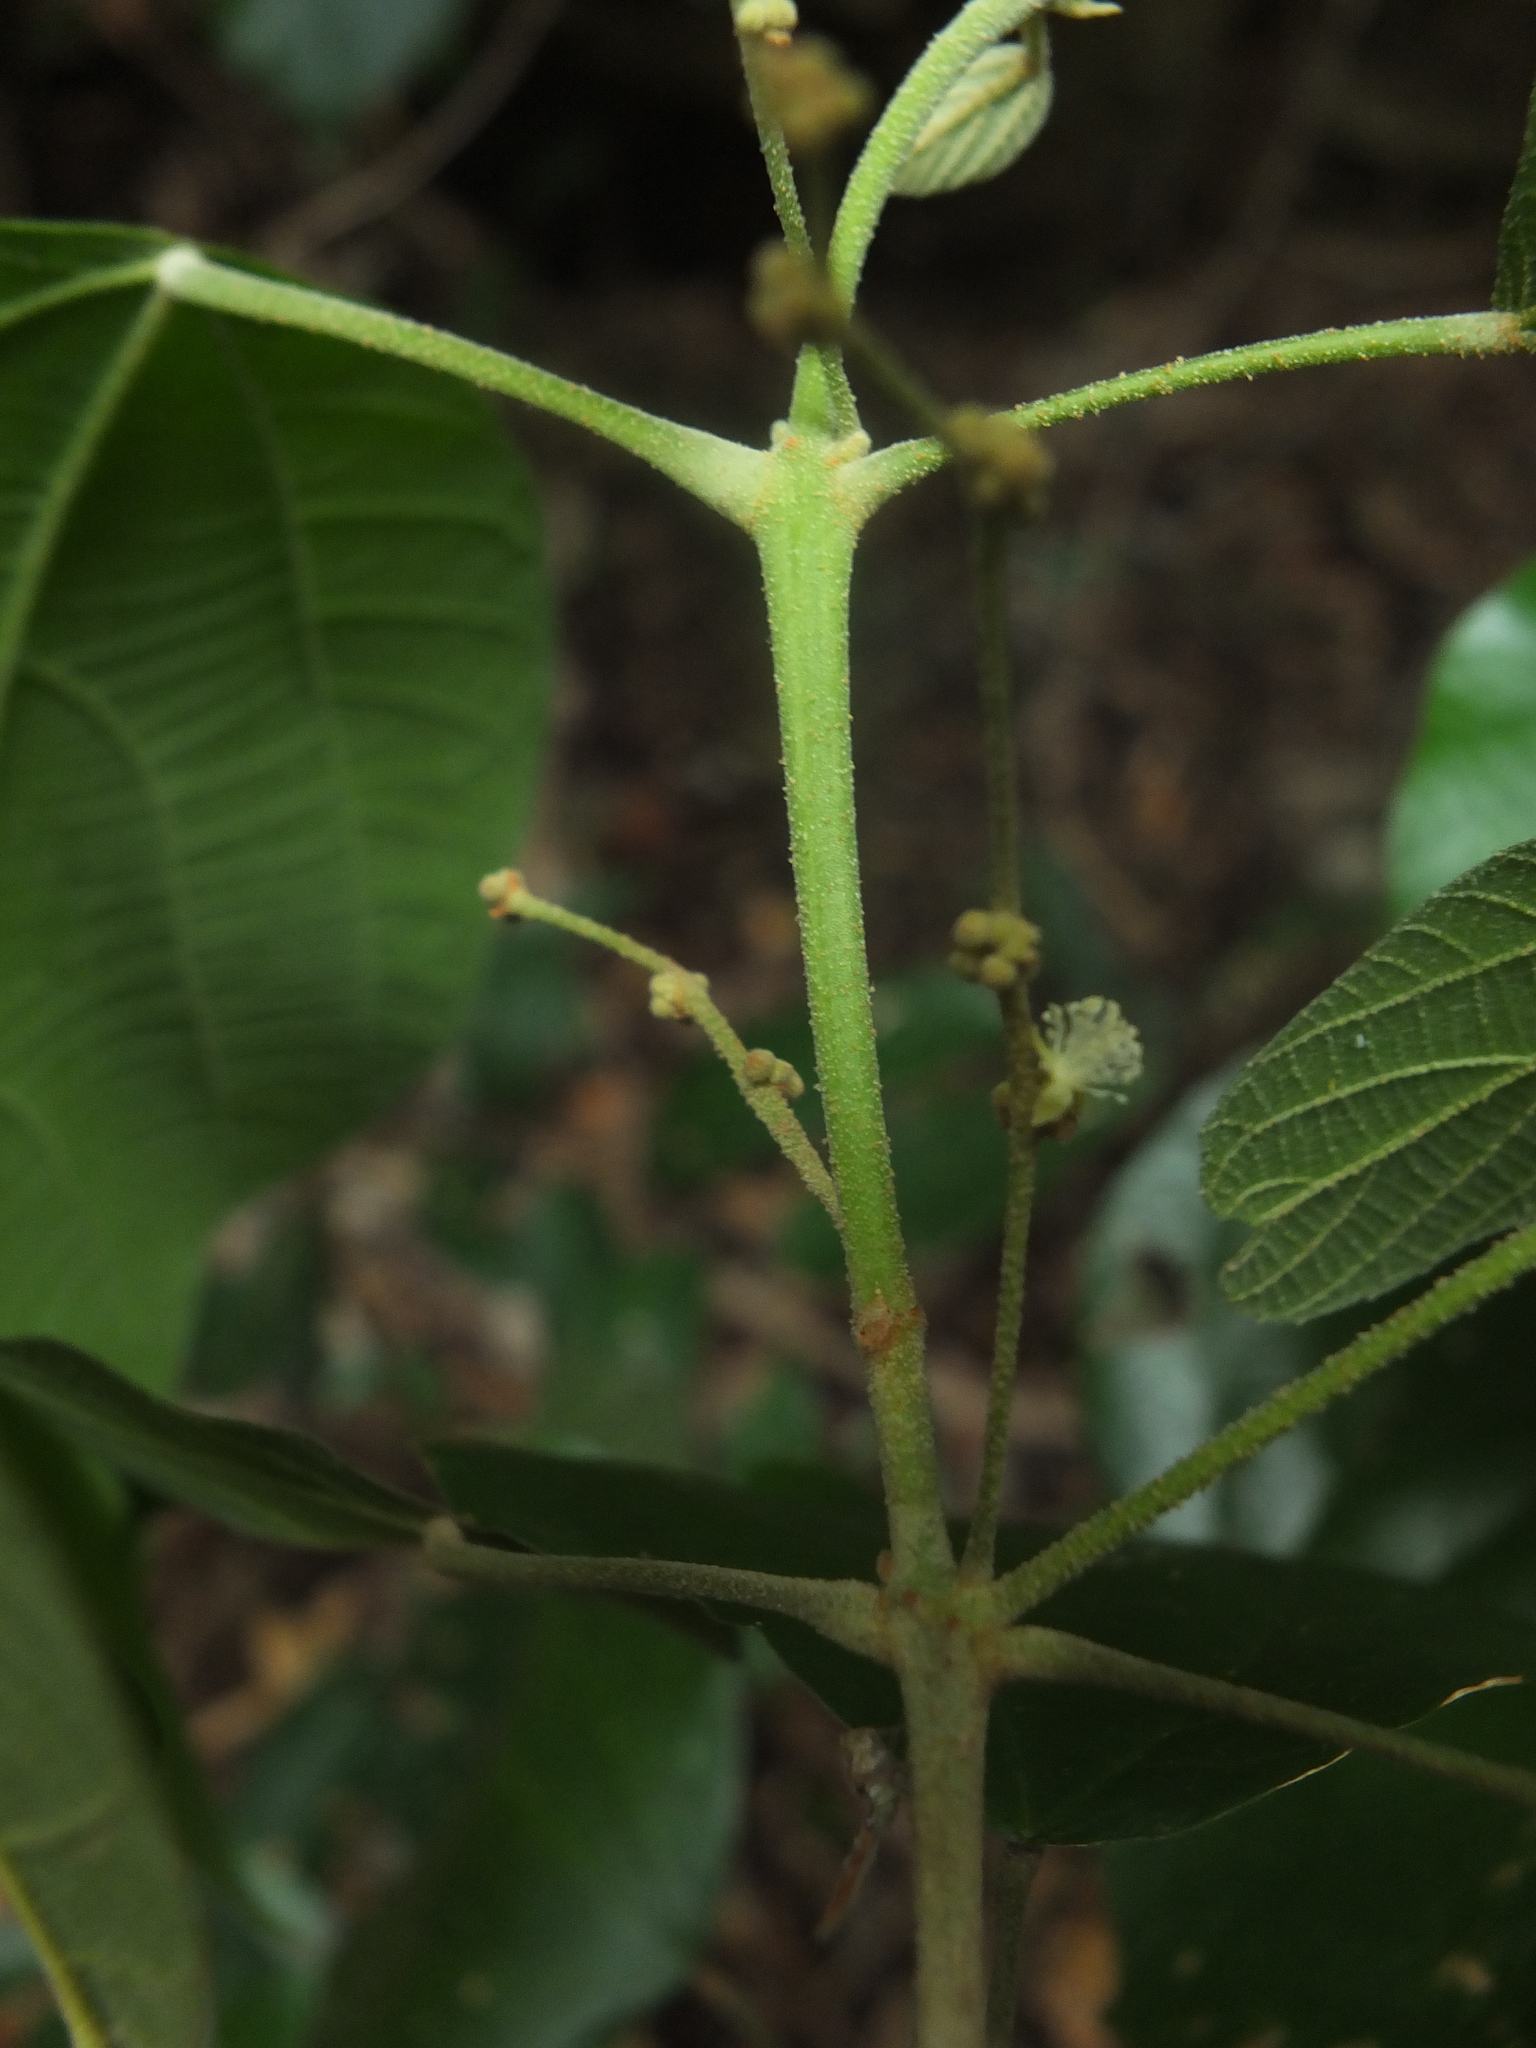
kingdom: Plantae
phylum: Tracheophyta
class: Magnoliopsida
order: Malpighiales
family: Euphorbiaceae
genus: Mallotus
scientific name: Mallotus rhamnifolius
